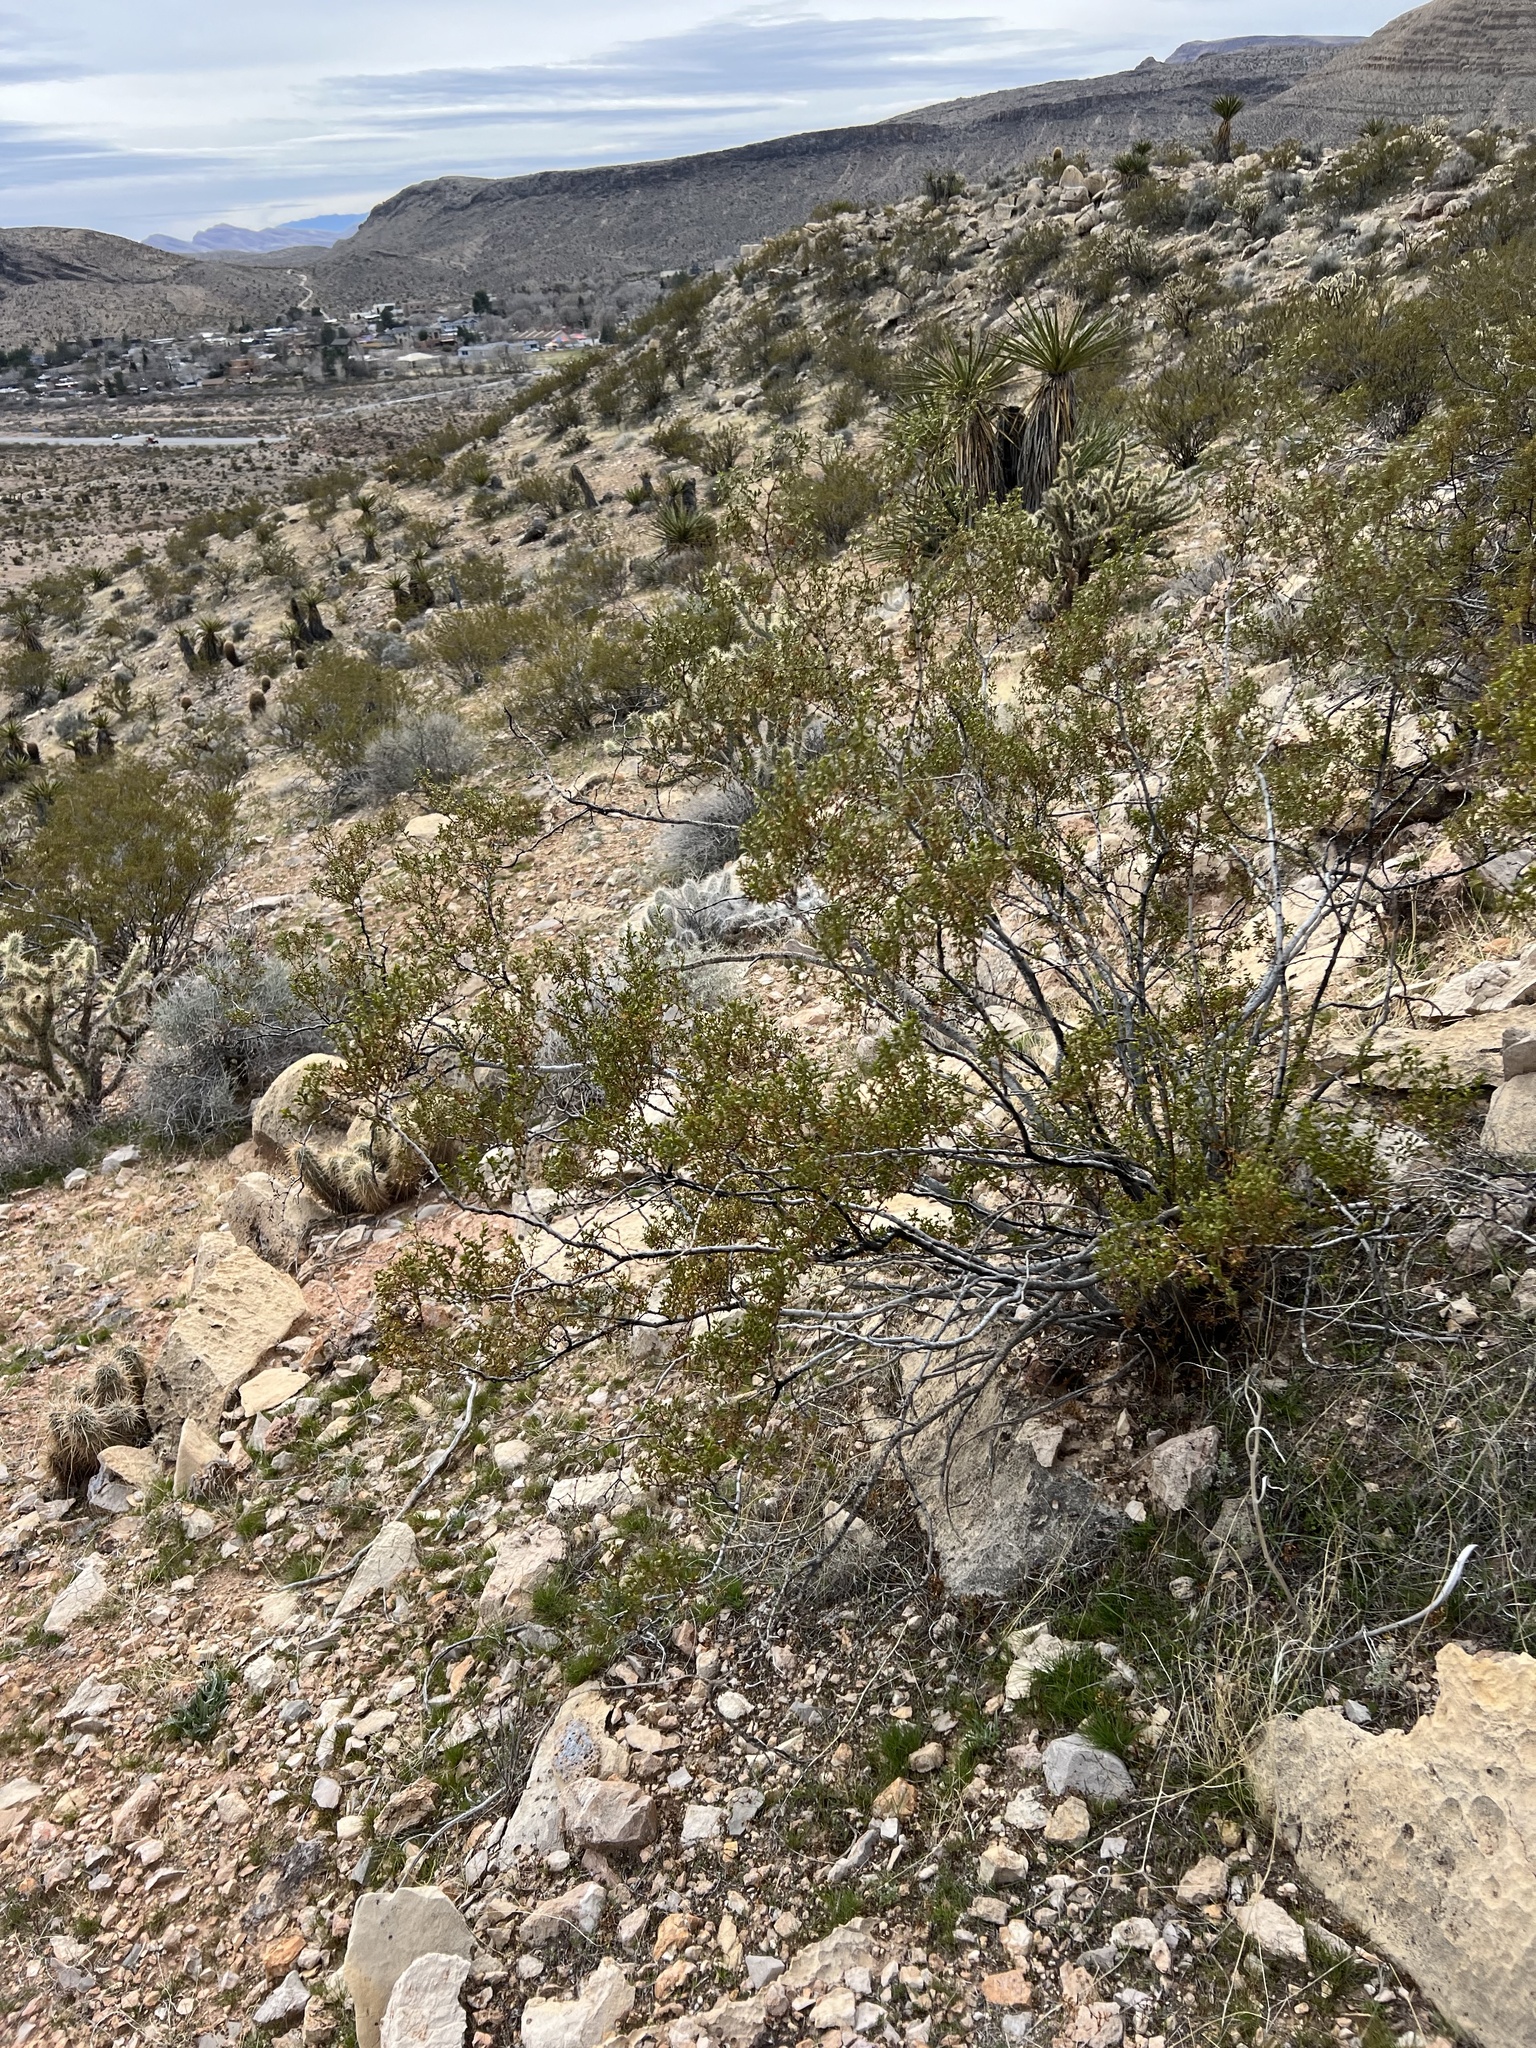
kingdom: Plantae
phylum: Tracheophyta
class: Magnoliopsida
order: Zygophyllales
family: Zygophyllaceae
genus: Larrea
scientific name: Larrea tridentata
